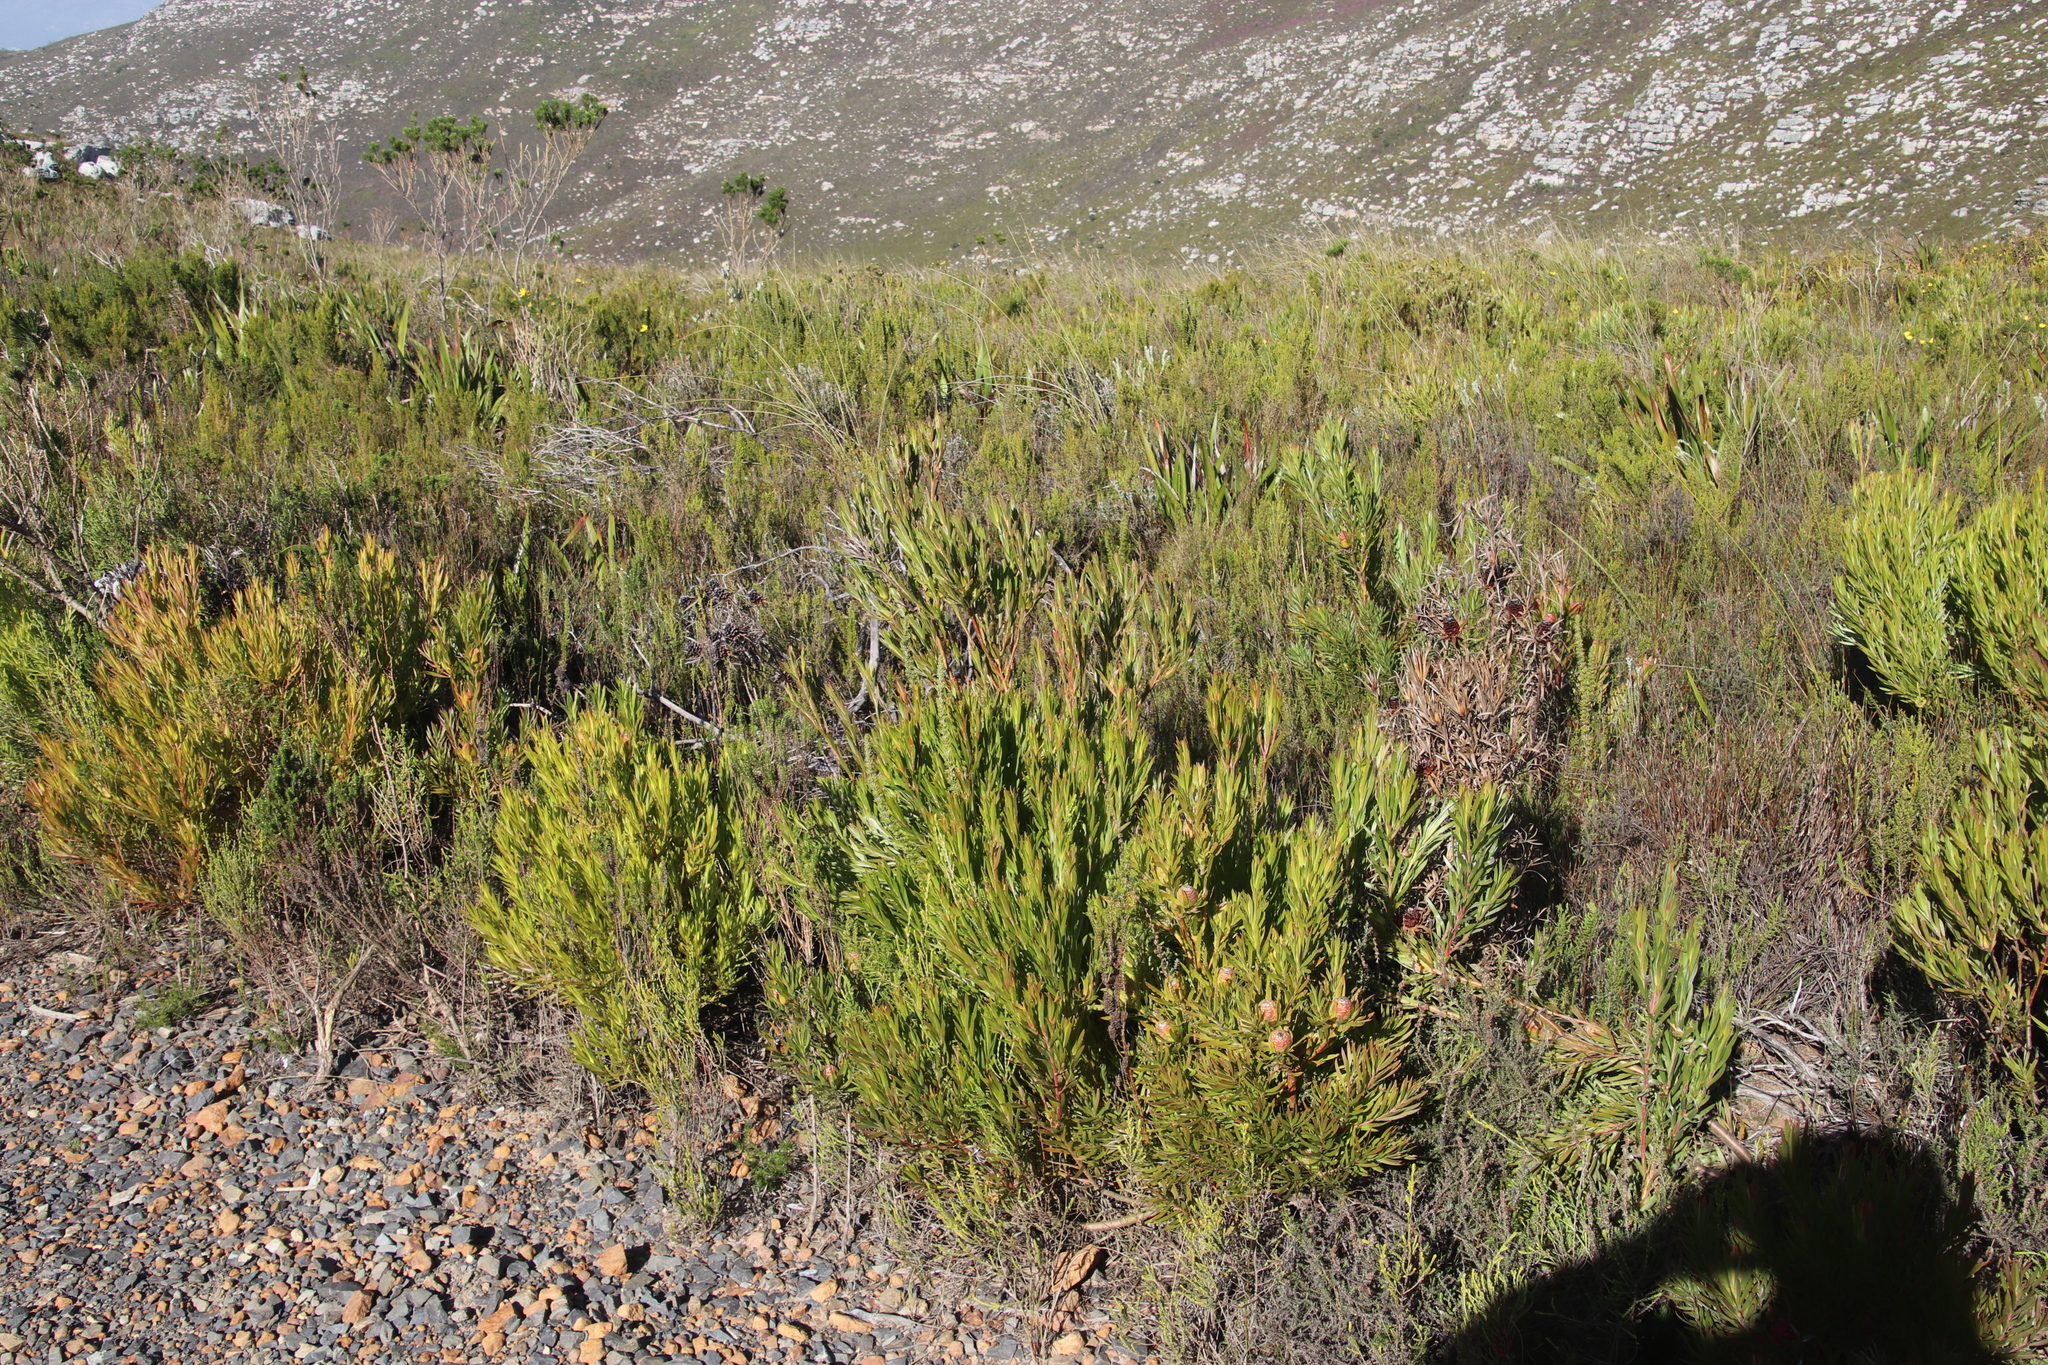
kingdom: Plantae
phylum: Tracheophyta
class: Magnoliopsida
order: Proteales
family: Proteaceae
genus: Leucadendron
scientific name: Leucadendron xanthoconus
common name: Sickle-leaf conebush
